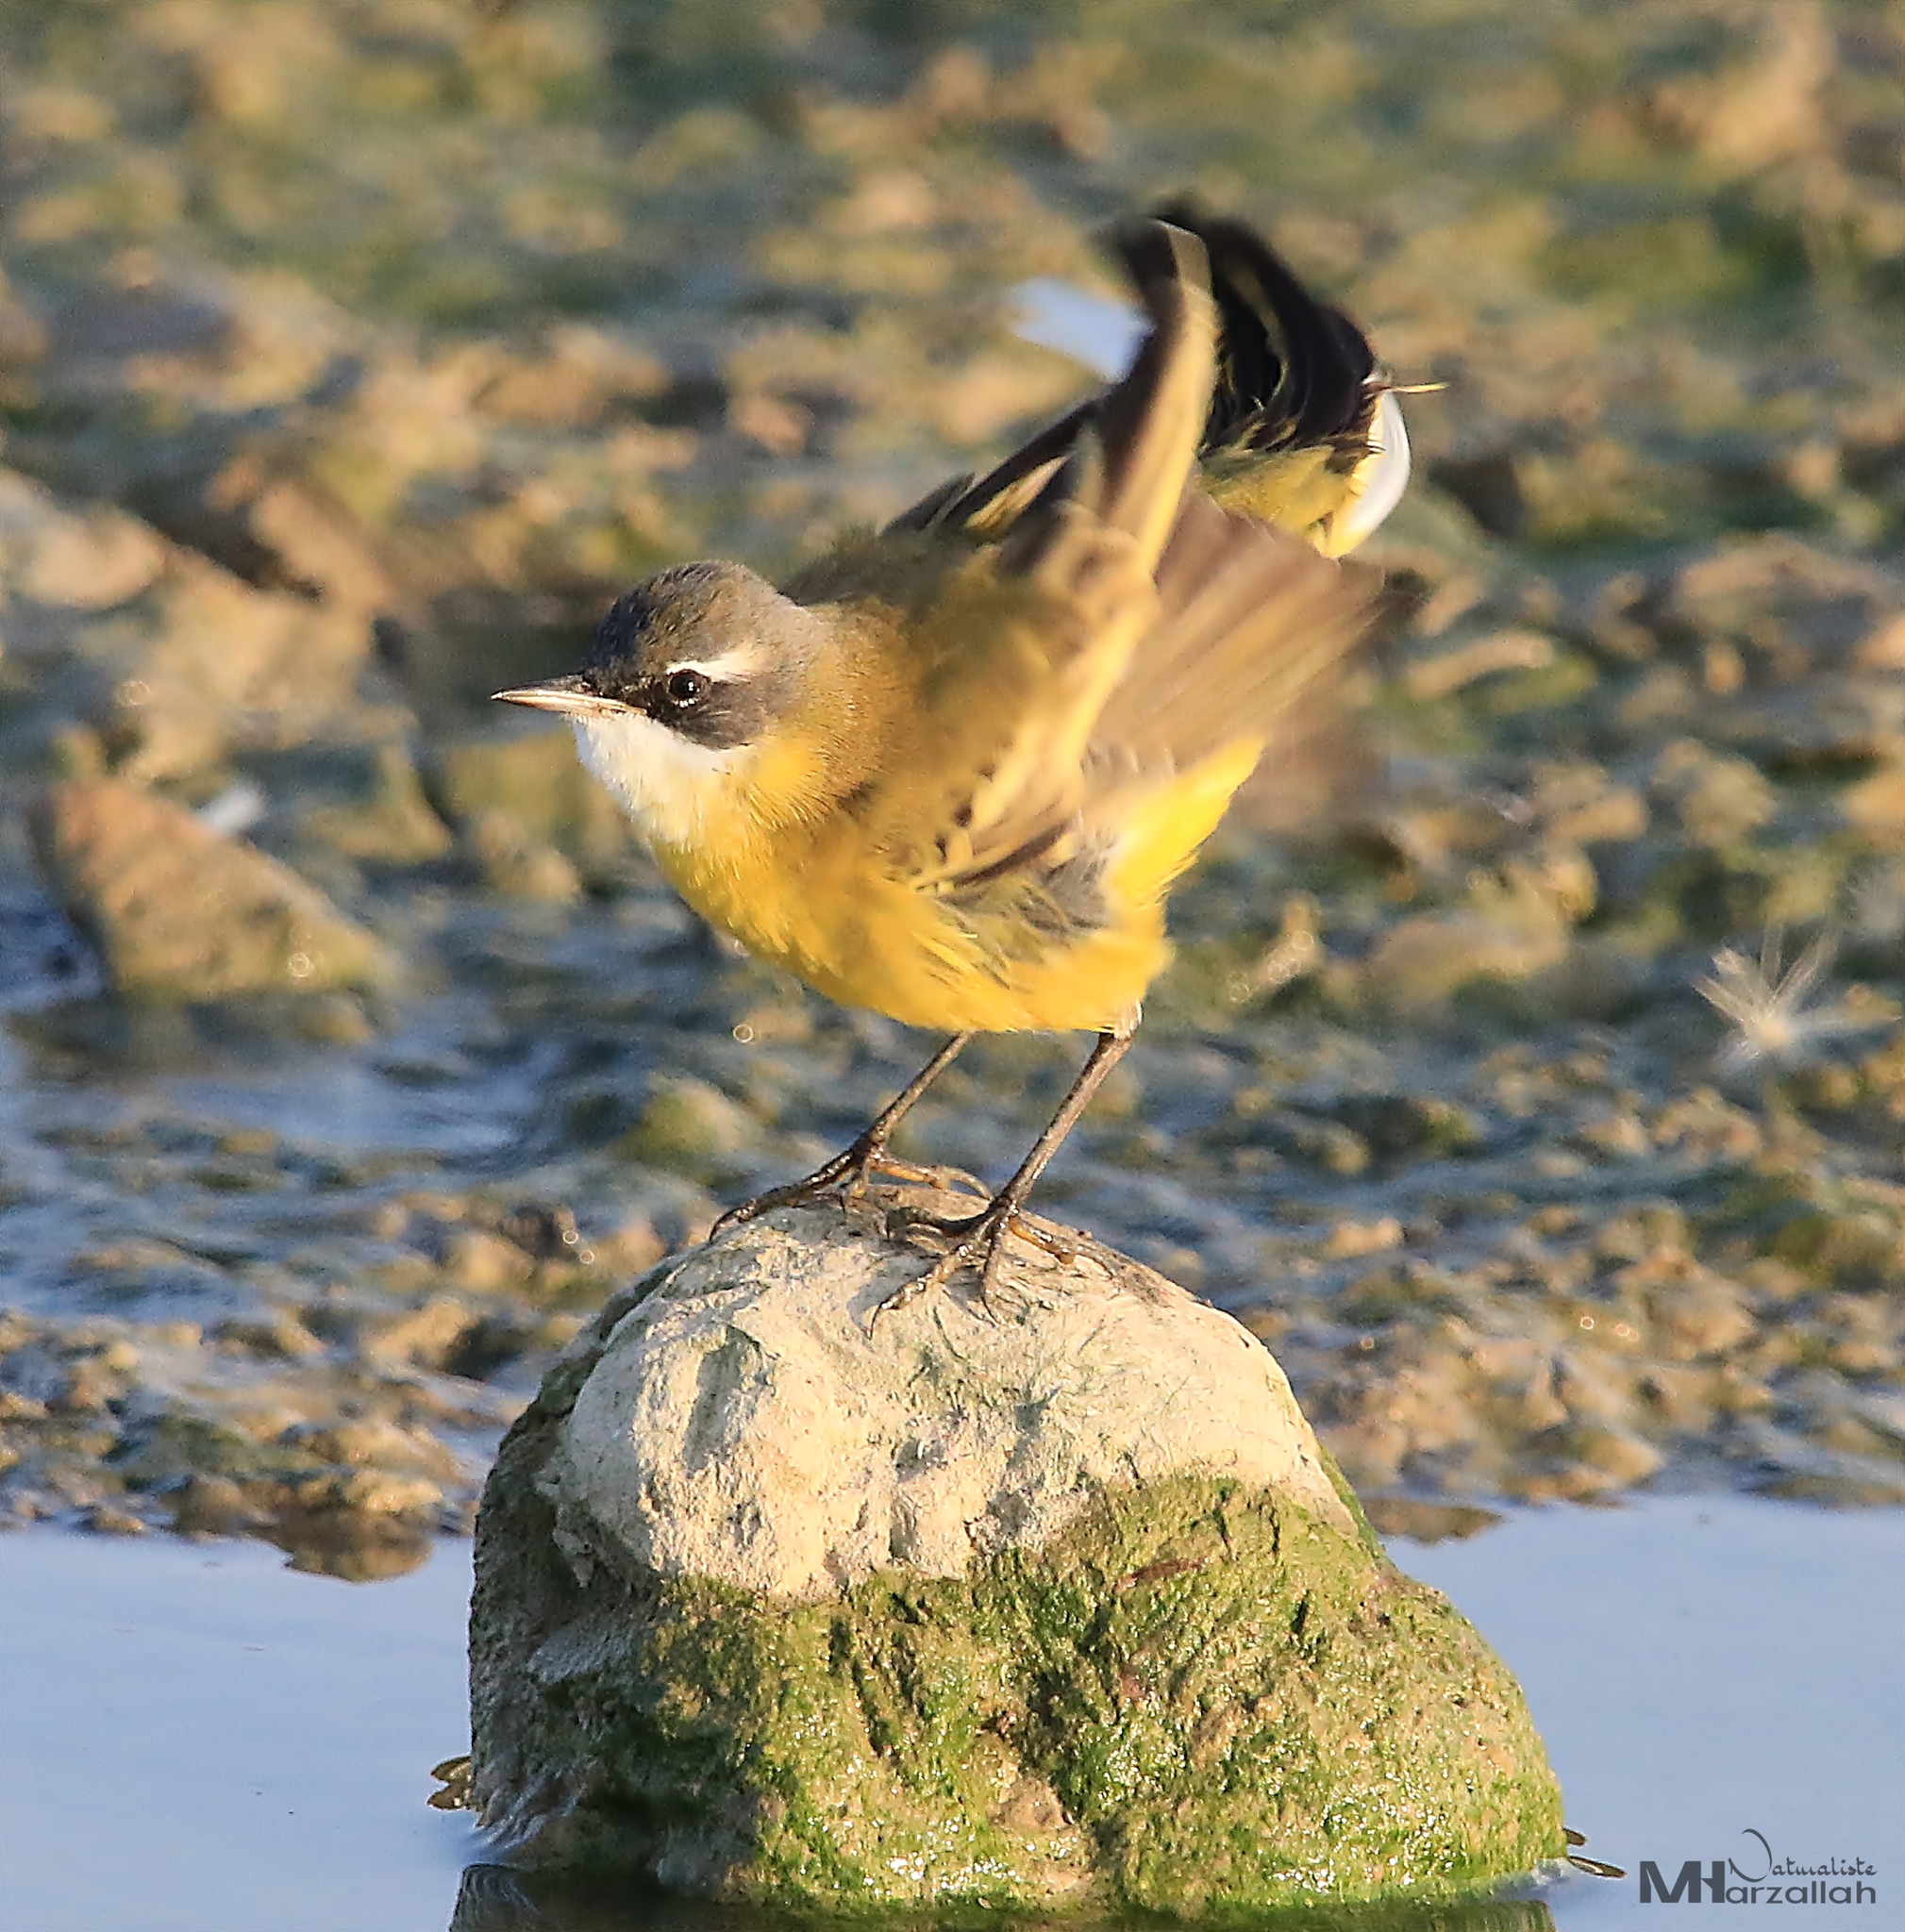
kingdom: Animalia
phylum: Chordata
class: Aves
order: Passeriformes
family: Motacillidae
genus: Motacilla
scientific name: Motacilla flava
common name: Western yellow wagtail
